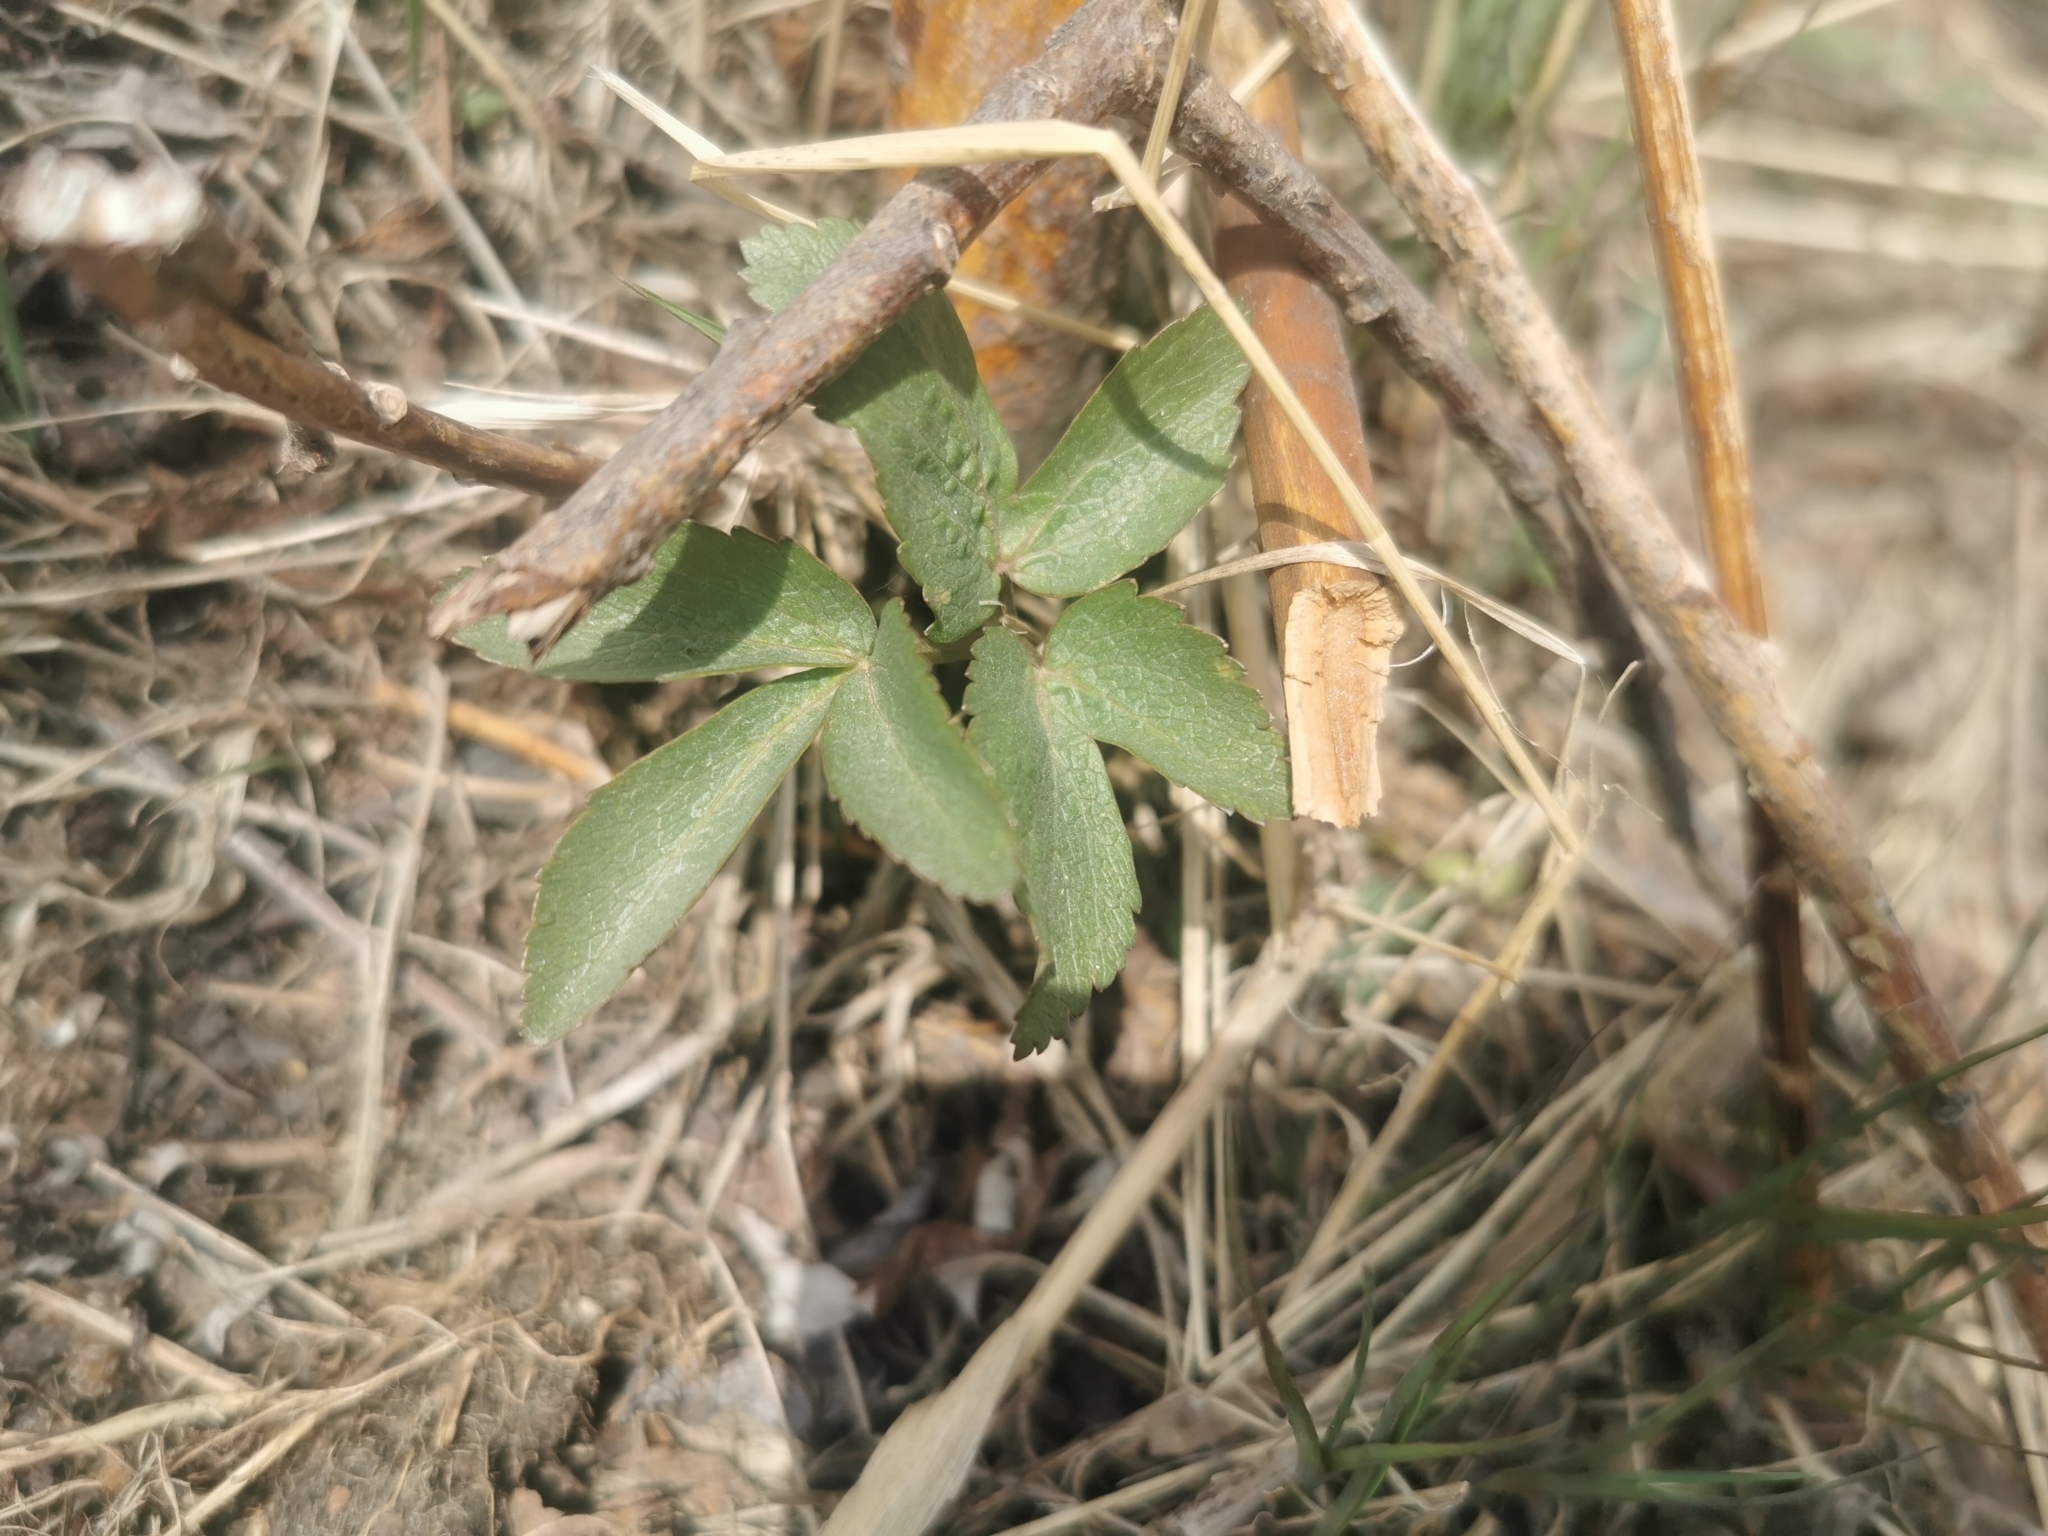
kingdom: Plantae
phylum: Tracheophyta
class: Magnoliopsida
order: Apiales
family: Apiaceae
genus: Angelica
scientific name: Angelica gmelinii
